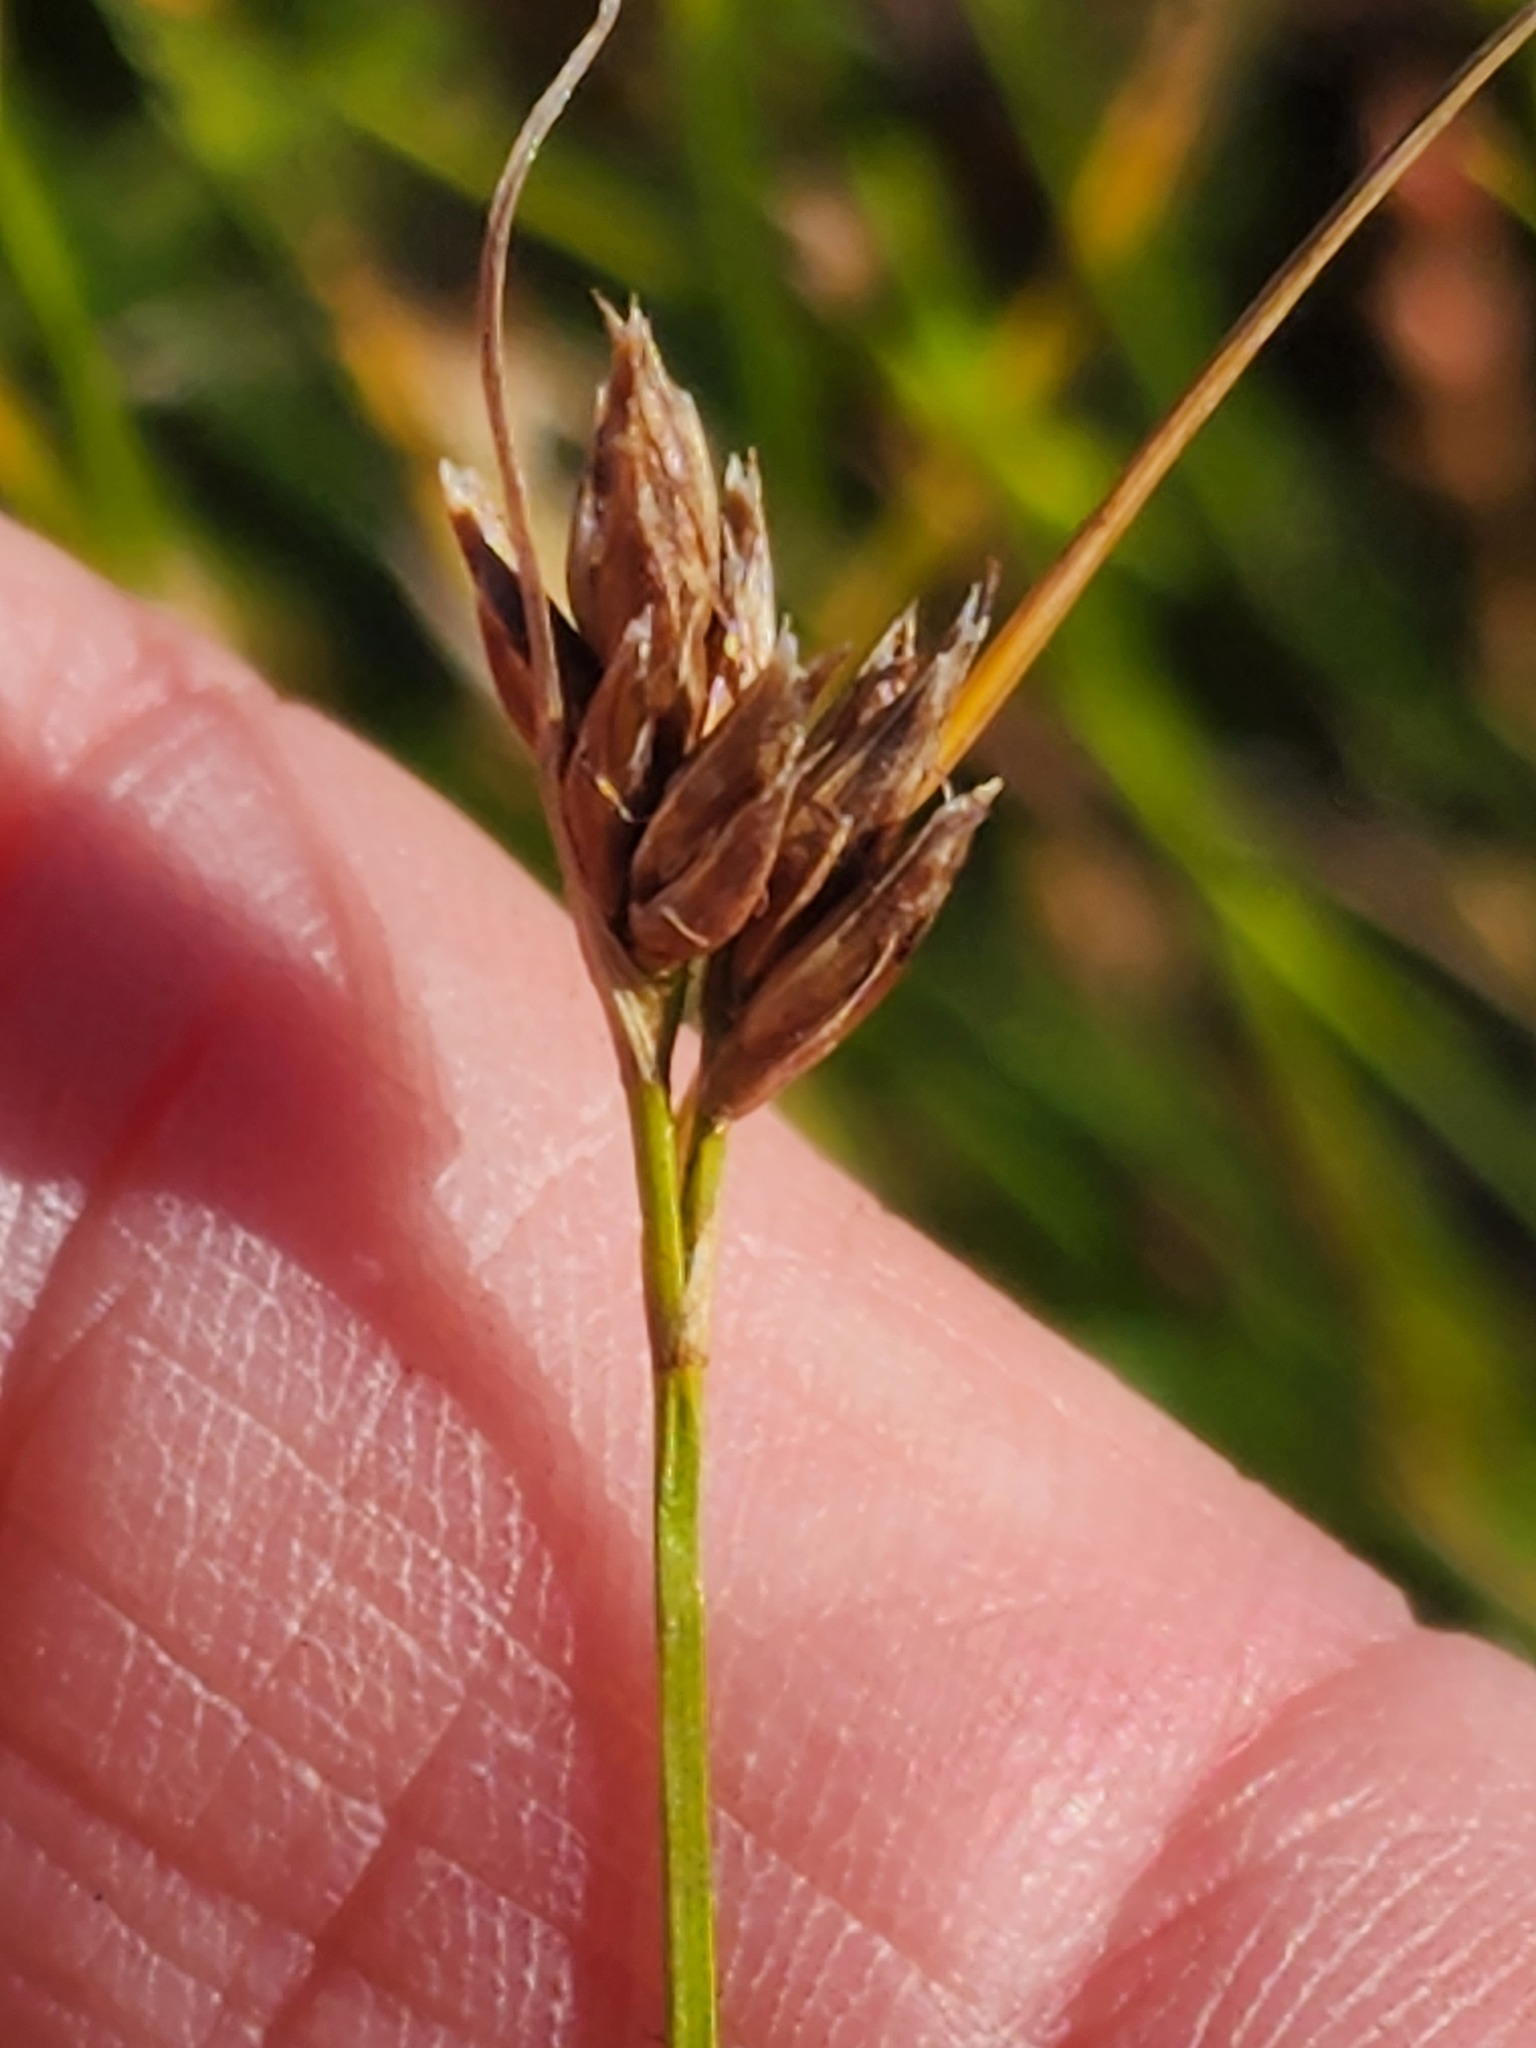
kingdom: Plantae
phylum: Tracheophyta
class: Liliopsida
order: Poales
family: Cyperaceae
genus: Rhynchospora
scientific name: Rhynchospora fusca
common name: Brown beak-sedge
